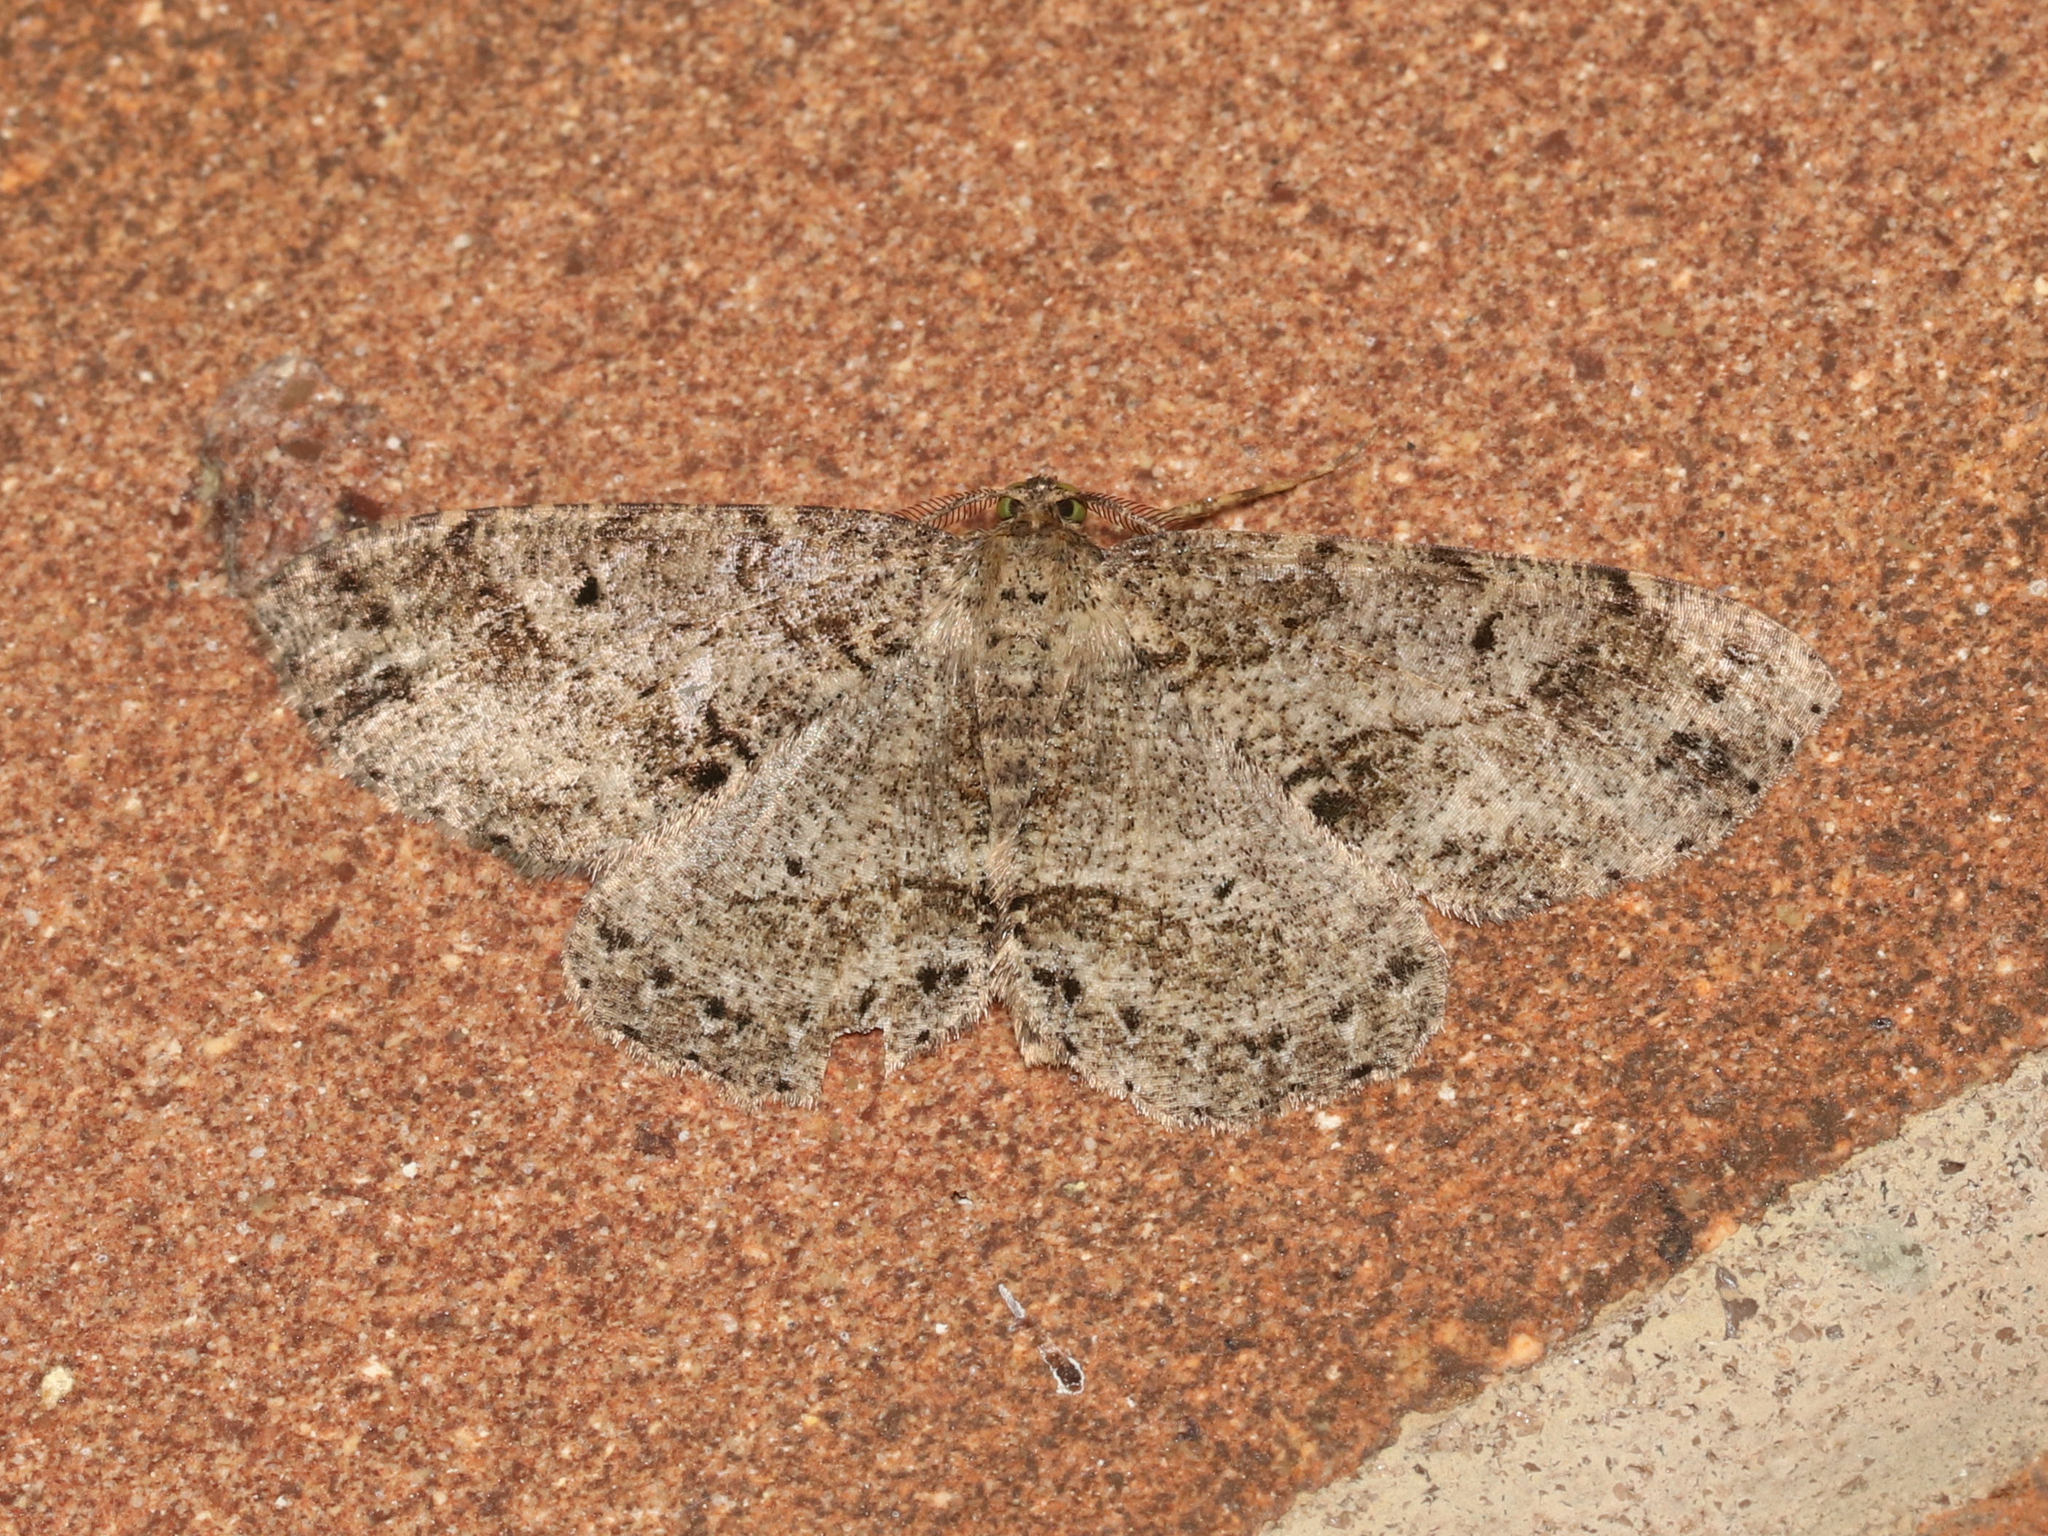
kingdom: Animalia
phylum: Arthropoda
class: Insecta
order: Lepidoptera
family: Geometridae
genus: Melanolophia
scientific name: Melanolophia canadaria
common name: Canadian melanolophia
